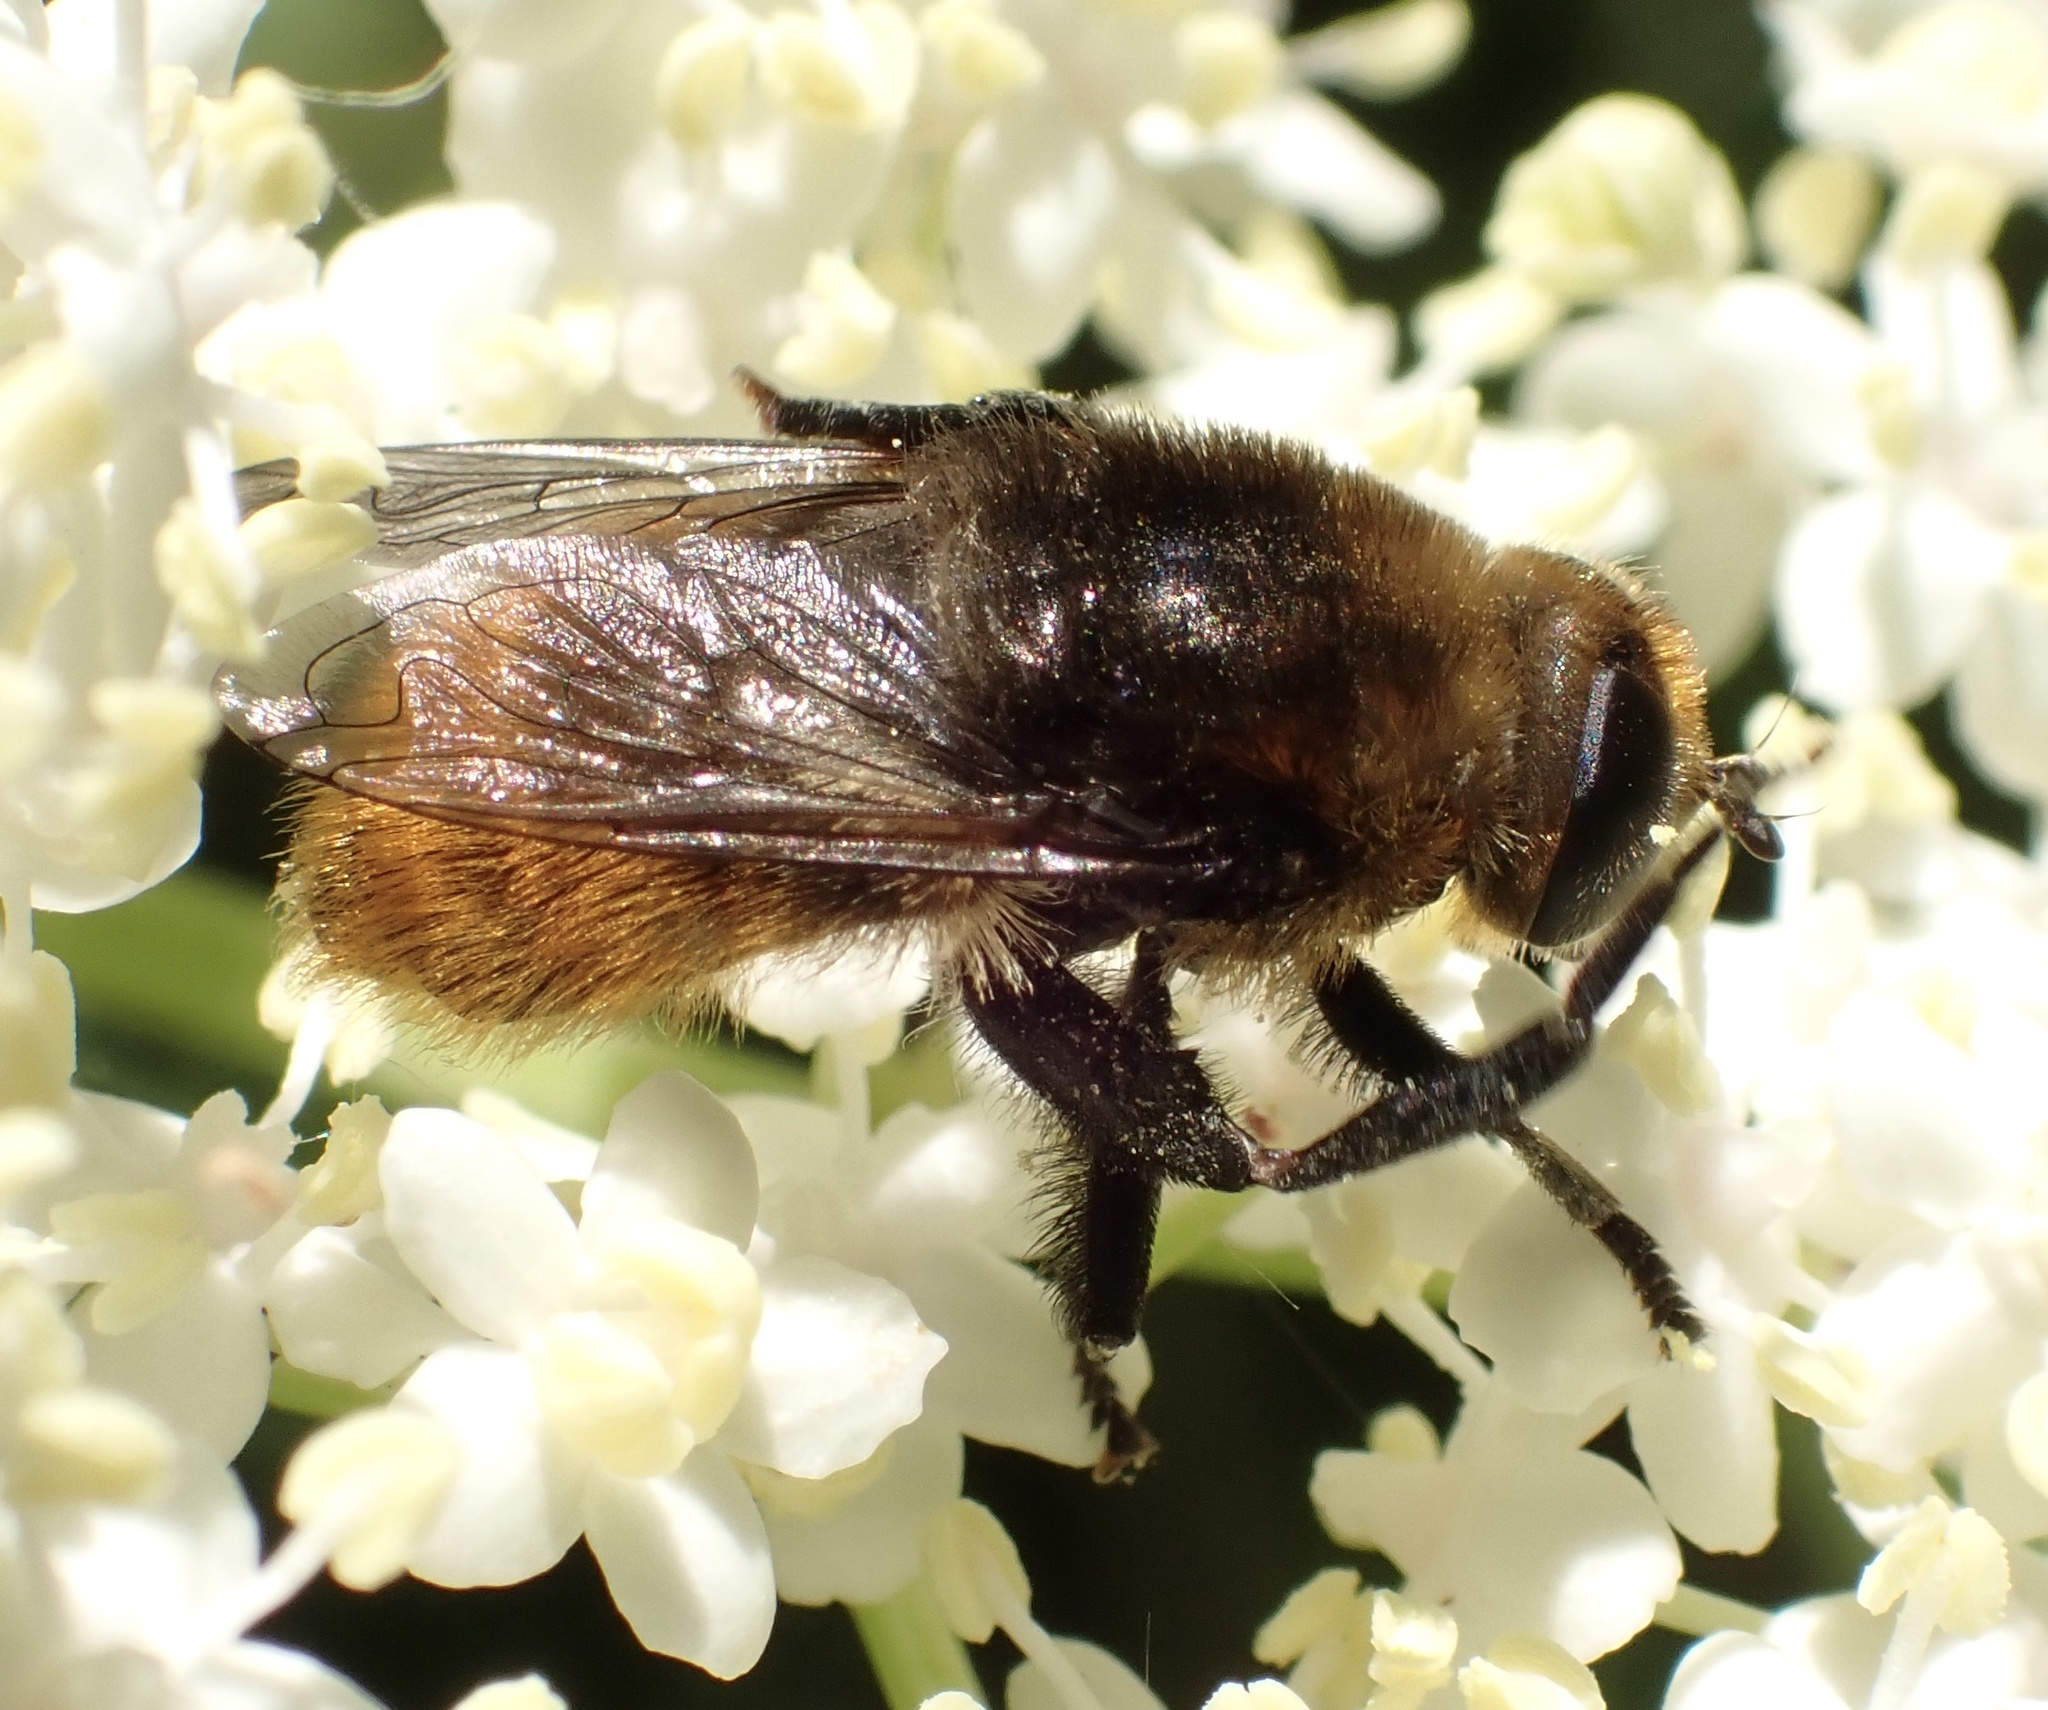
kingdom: Animalia
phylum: Arthropoda
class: Insecta
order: Diptera
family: Syrphidae
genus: Merodon
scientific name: Merodon equestris
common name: Greater bulb-fly
